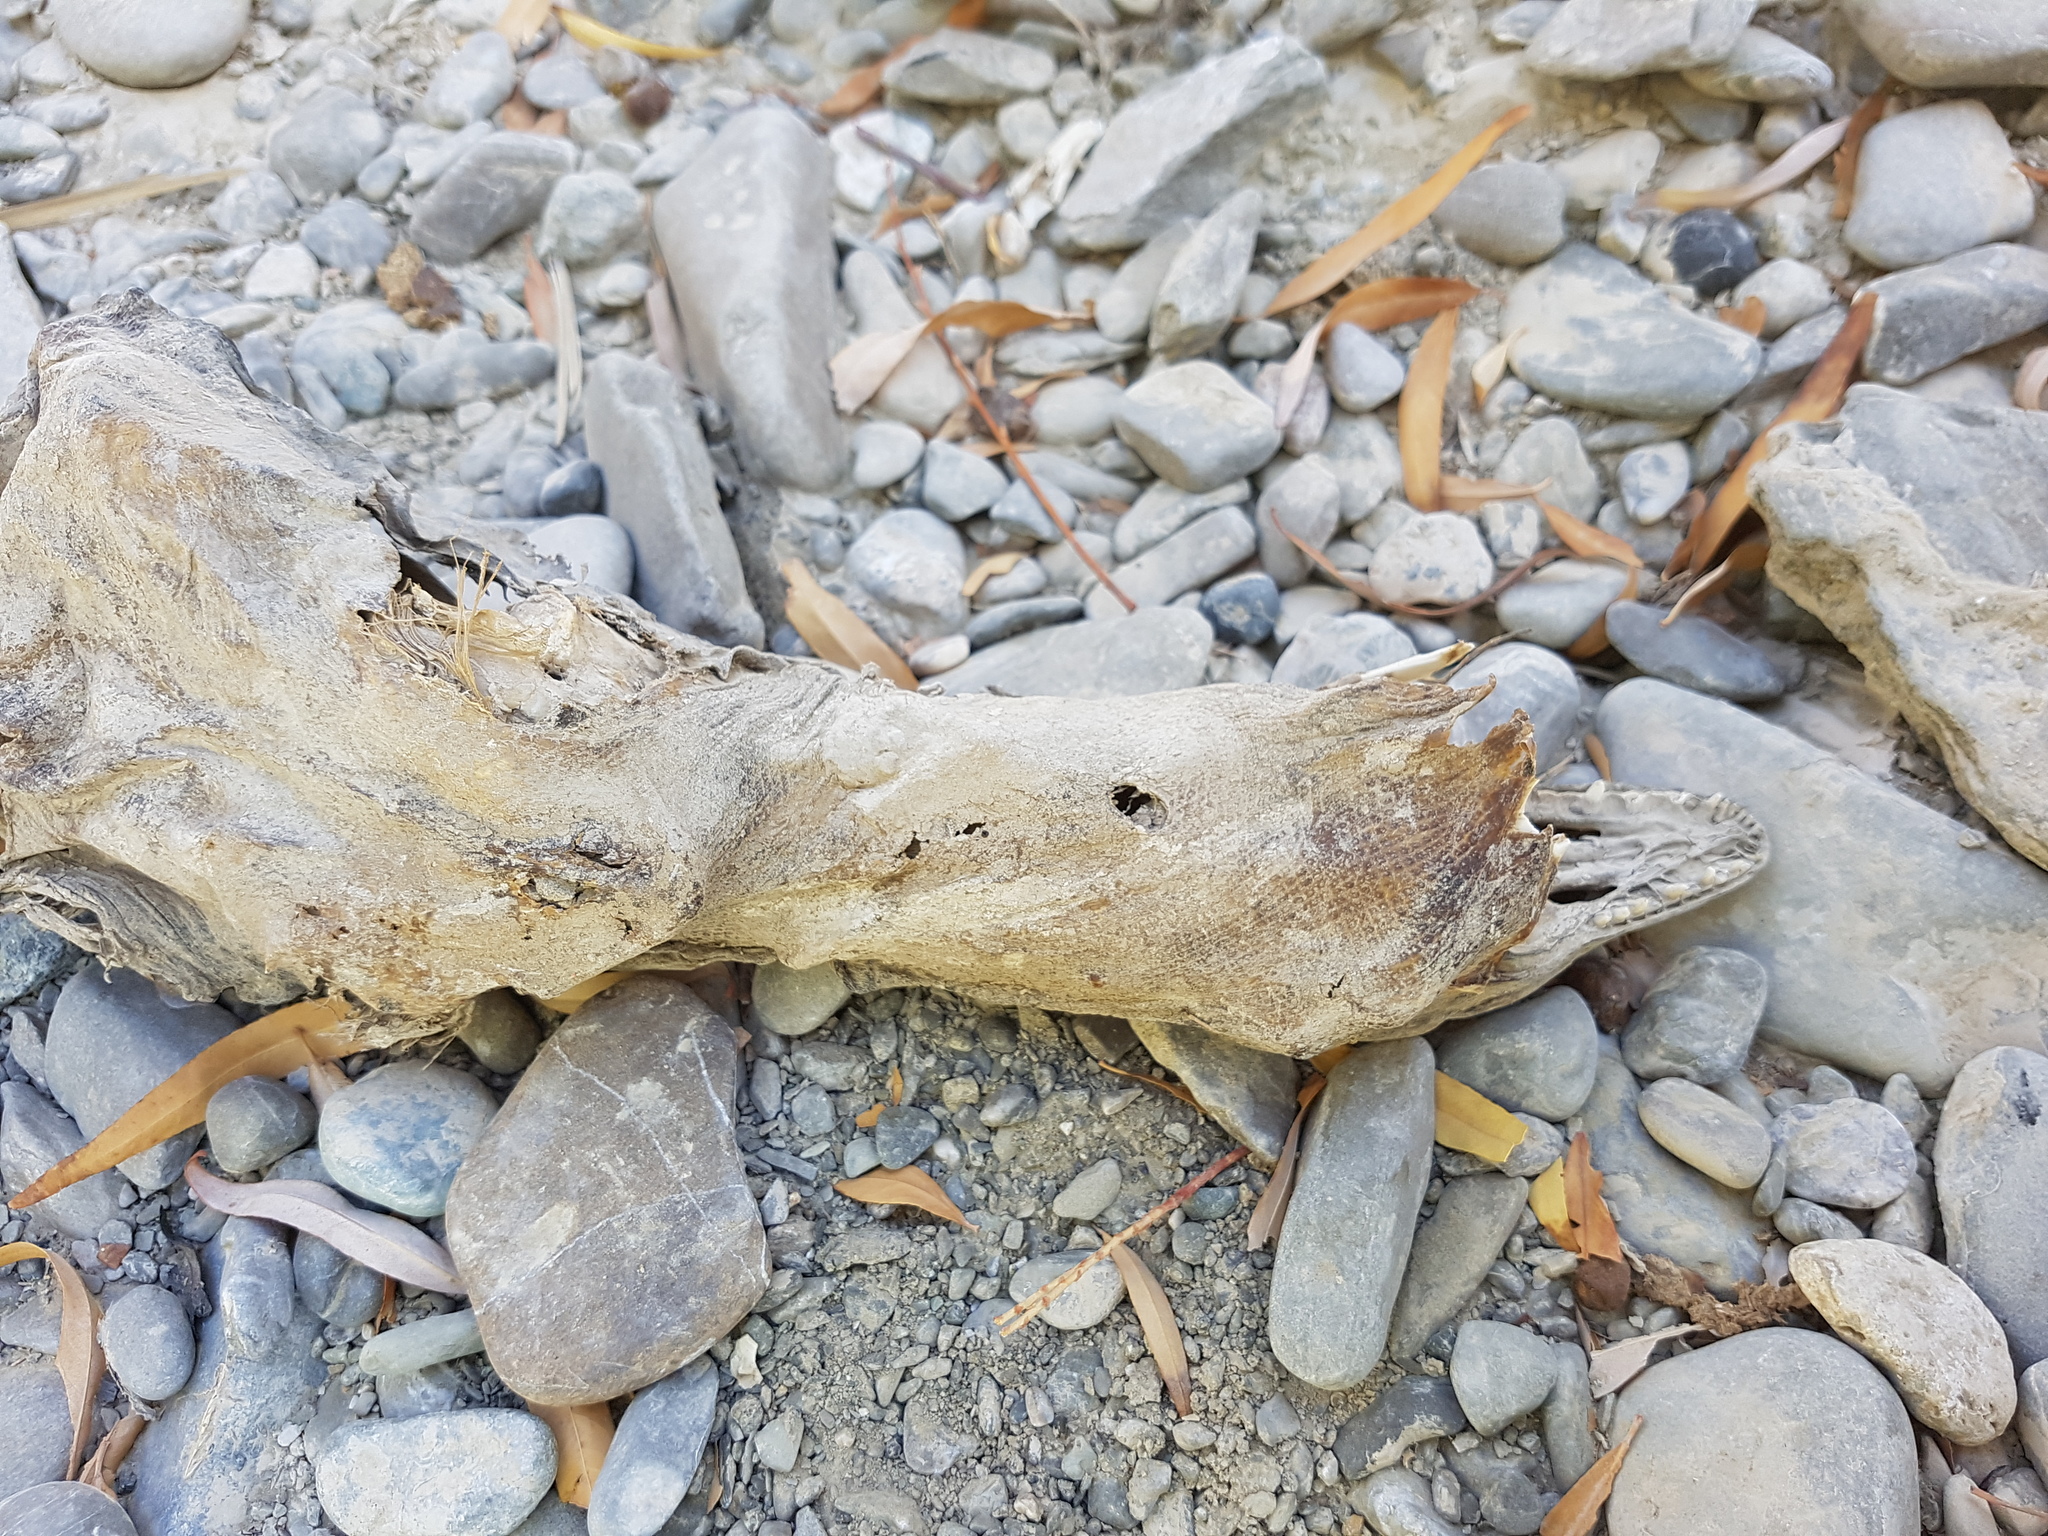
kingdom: Animalia
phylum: Chordata
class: Squamata
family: Varanidae
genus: Varanus
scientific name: Varanus bengalensis
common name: Bengal monitor
